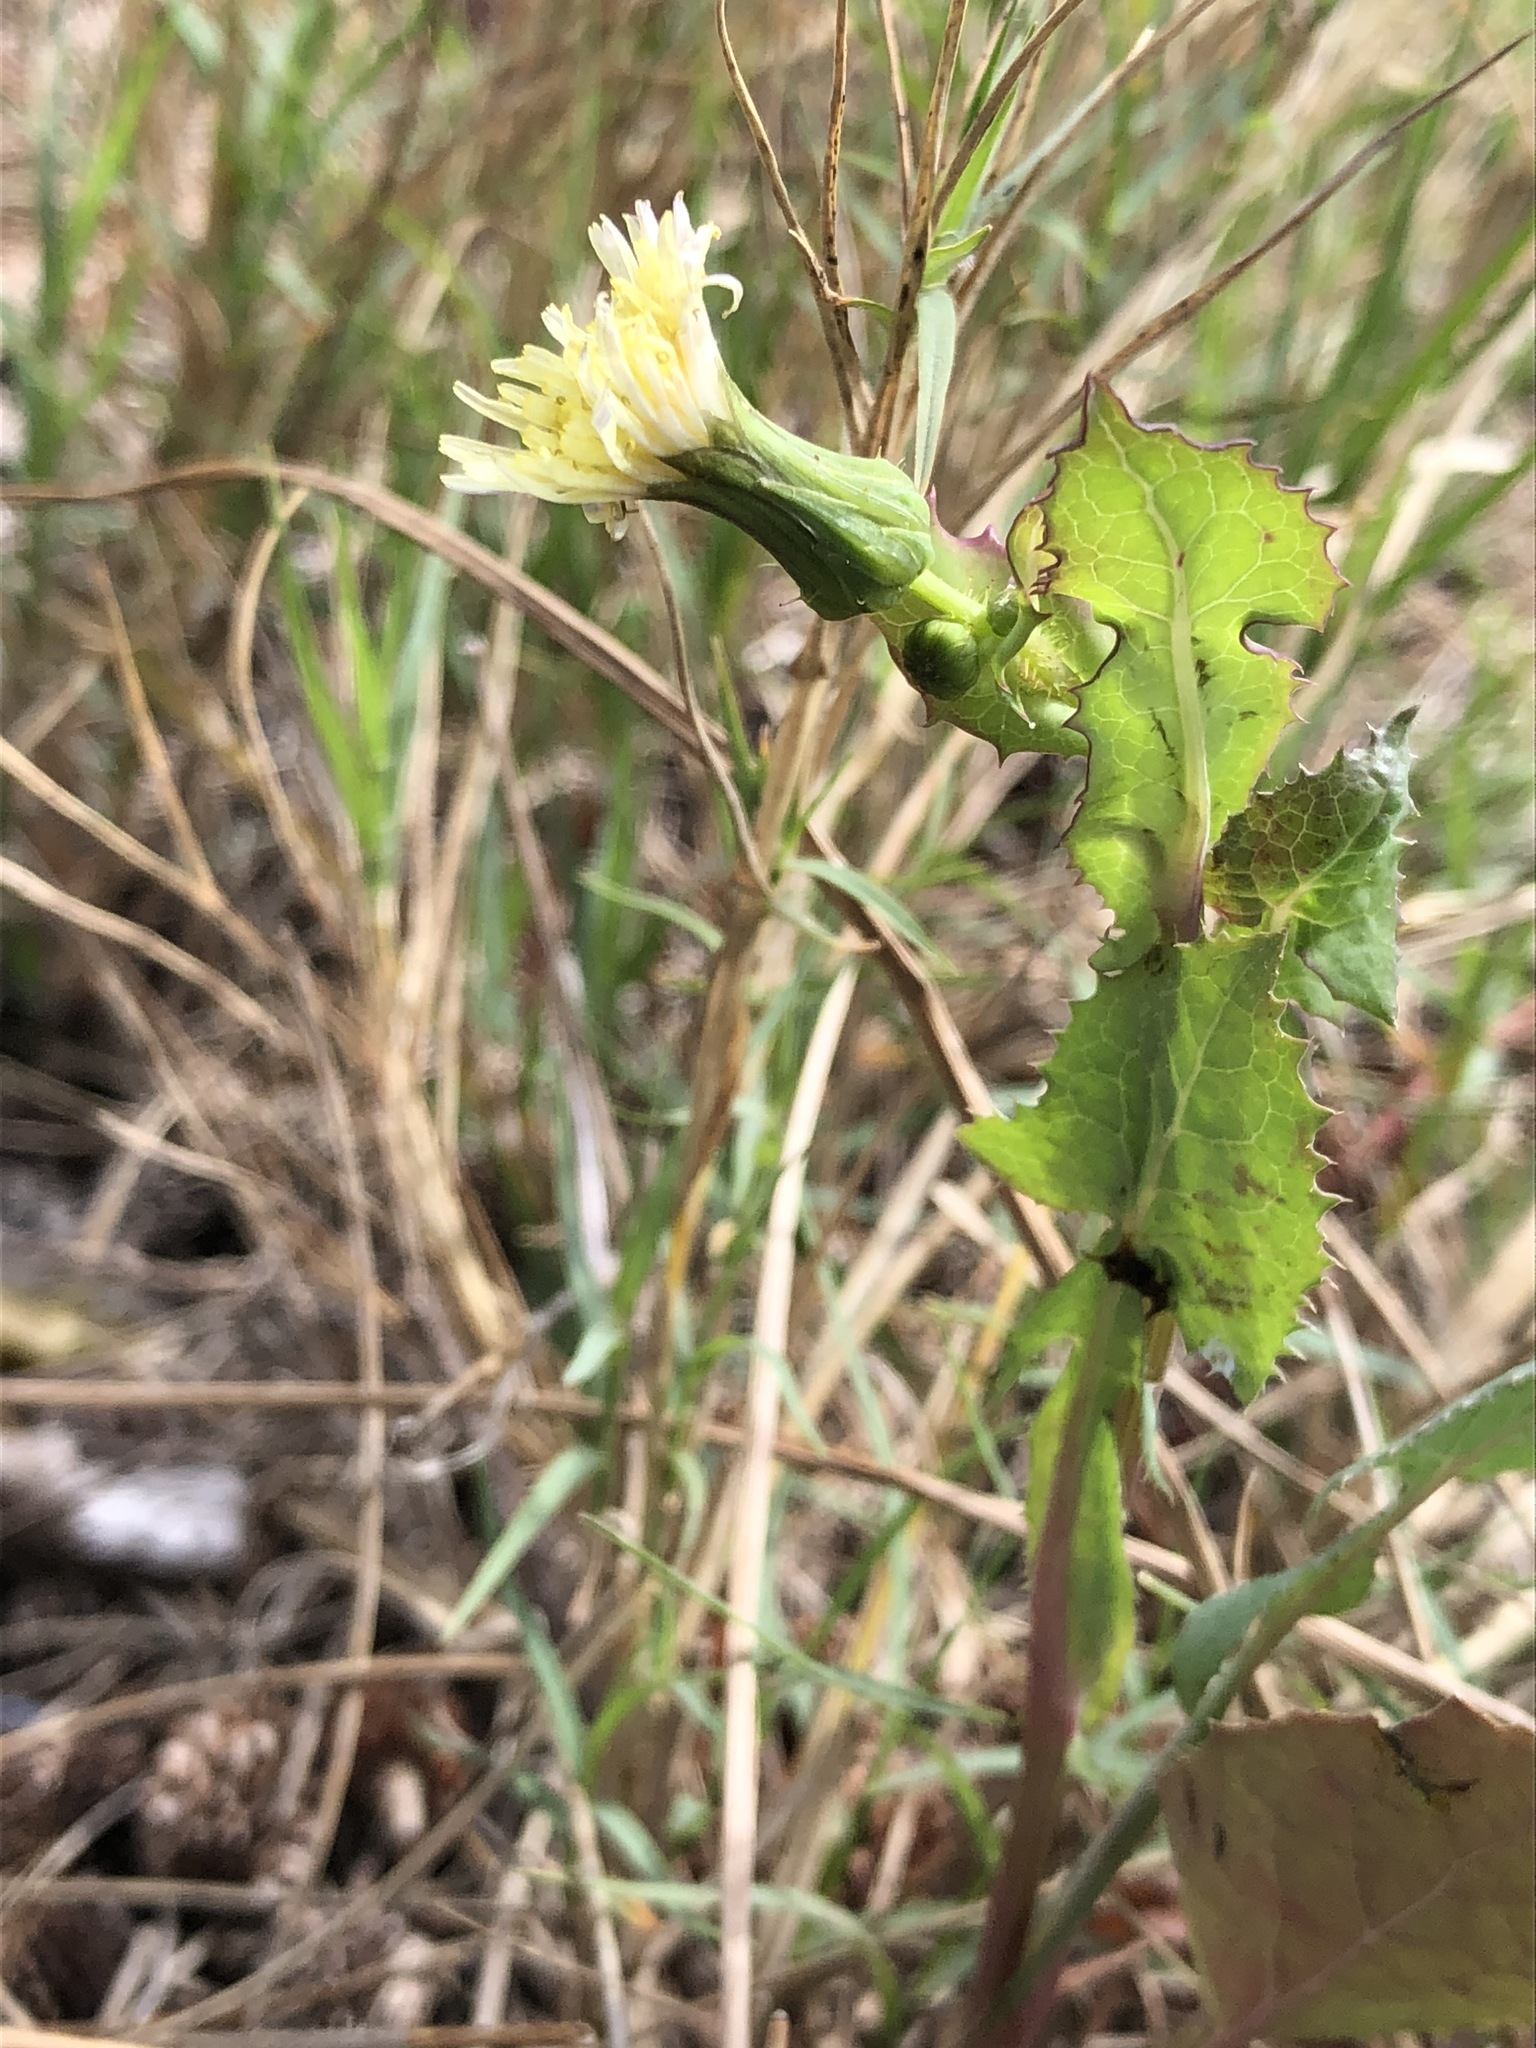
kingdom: Plantae
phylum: Tracheophyta
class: Magnoliopsida
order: Asterales
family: Asteraceae
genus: Sonchus
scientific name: Sonchus oleraceus
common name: Common sowthistle
